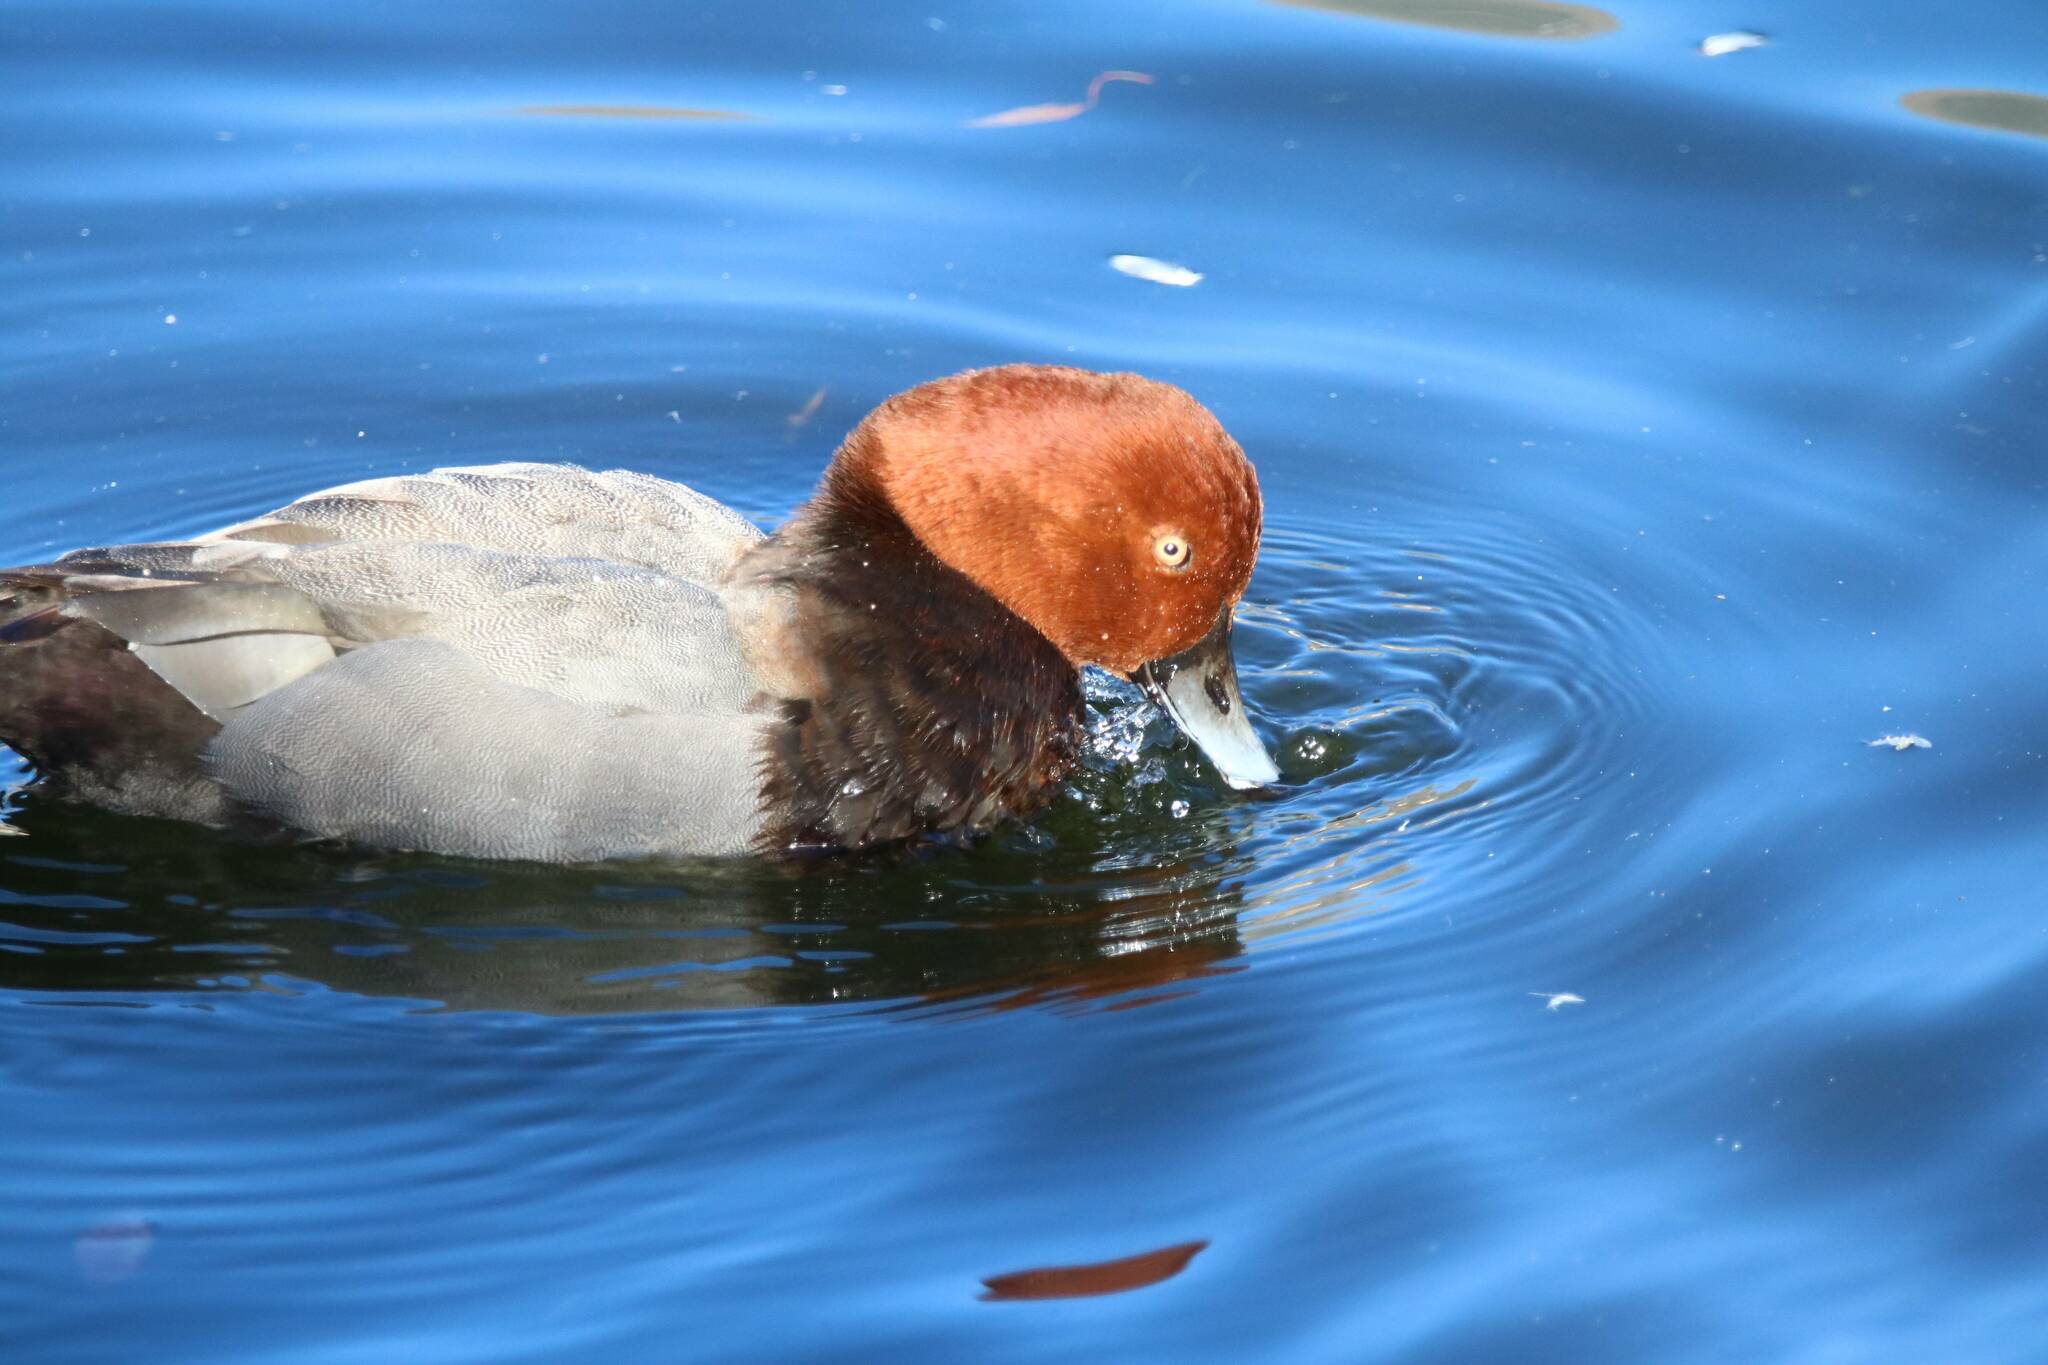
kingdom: Animalia
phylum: Chordata
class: Aves
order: Anseriformes
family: Anatidae
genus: Aythya
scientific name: Aythya ferina
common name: Common pochard
